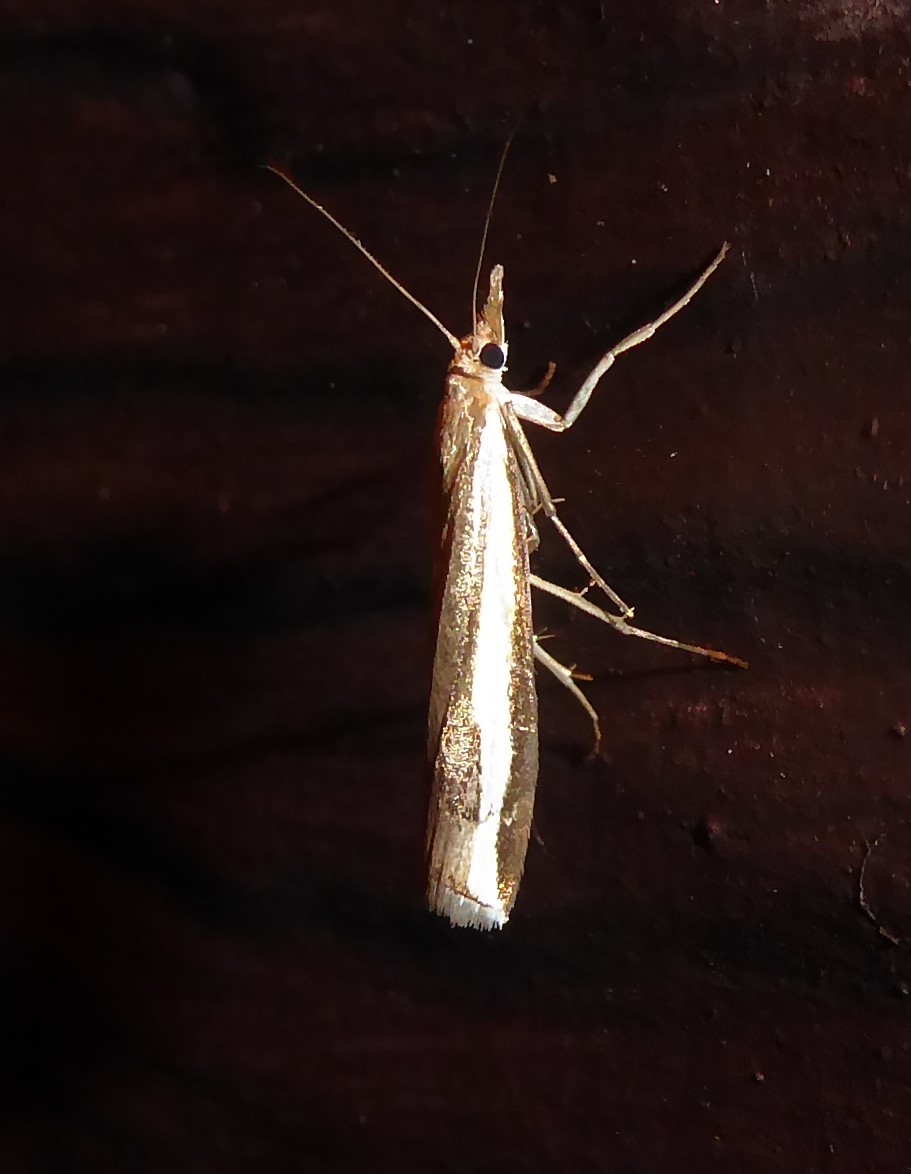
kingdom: Animalia
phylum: Arthropoda
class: Insecta
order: Lepidoptera
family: Crambidae
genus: Orocrambus
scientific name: Orocrambus flexuosellus
